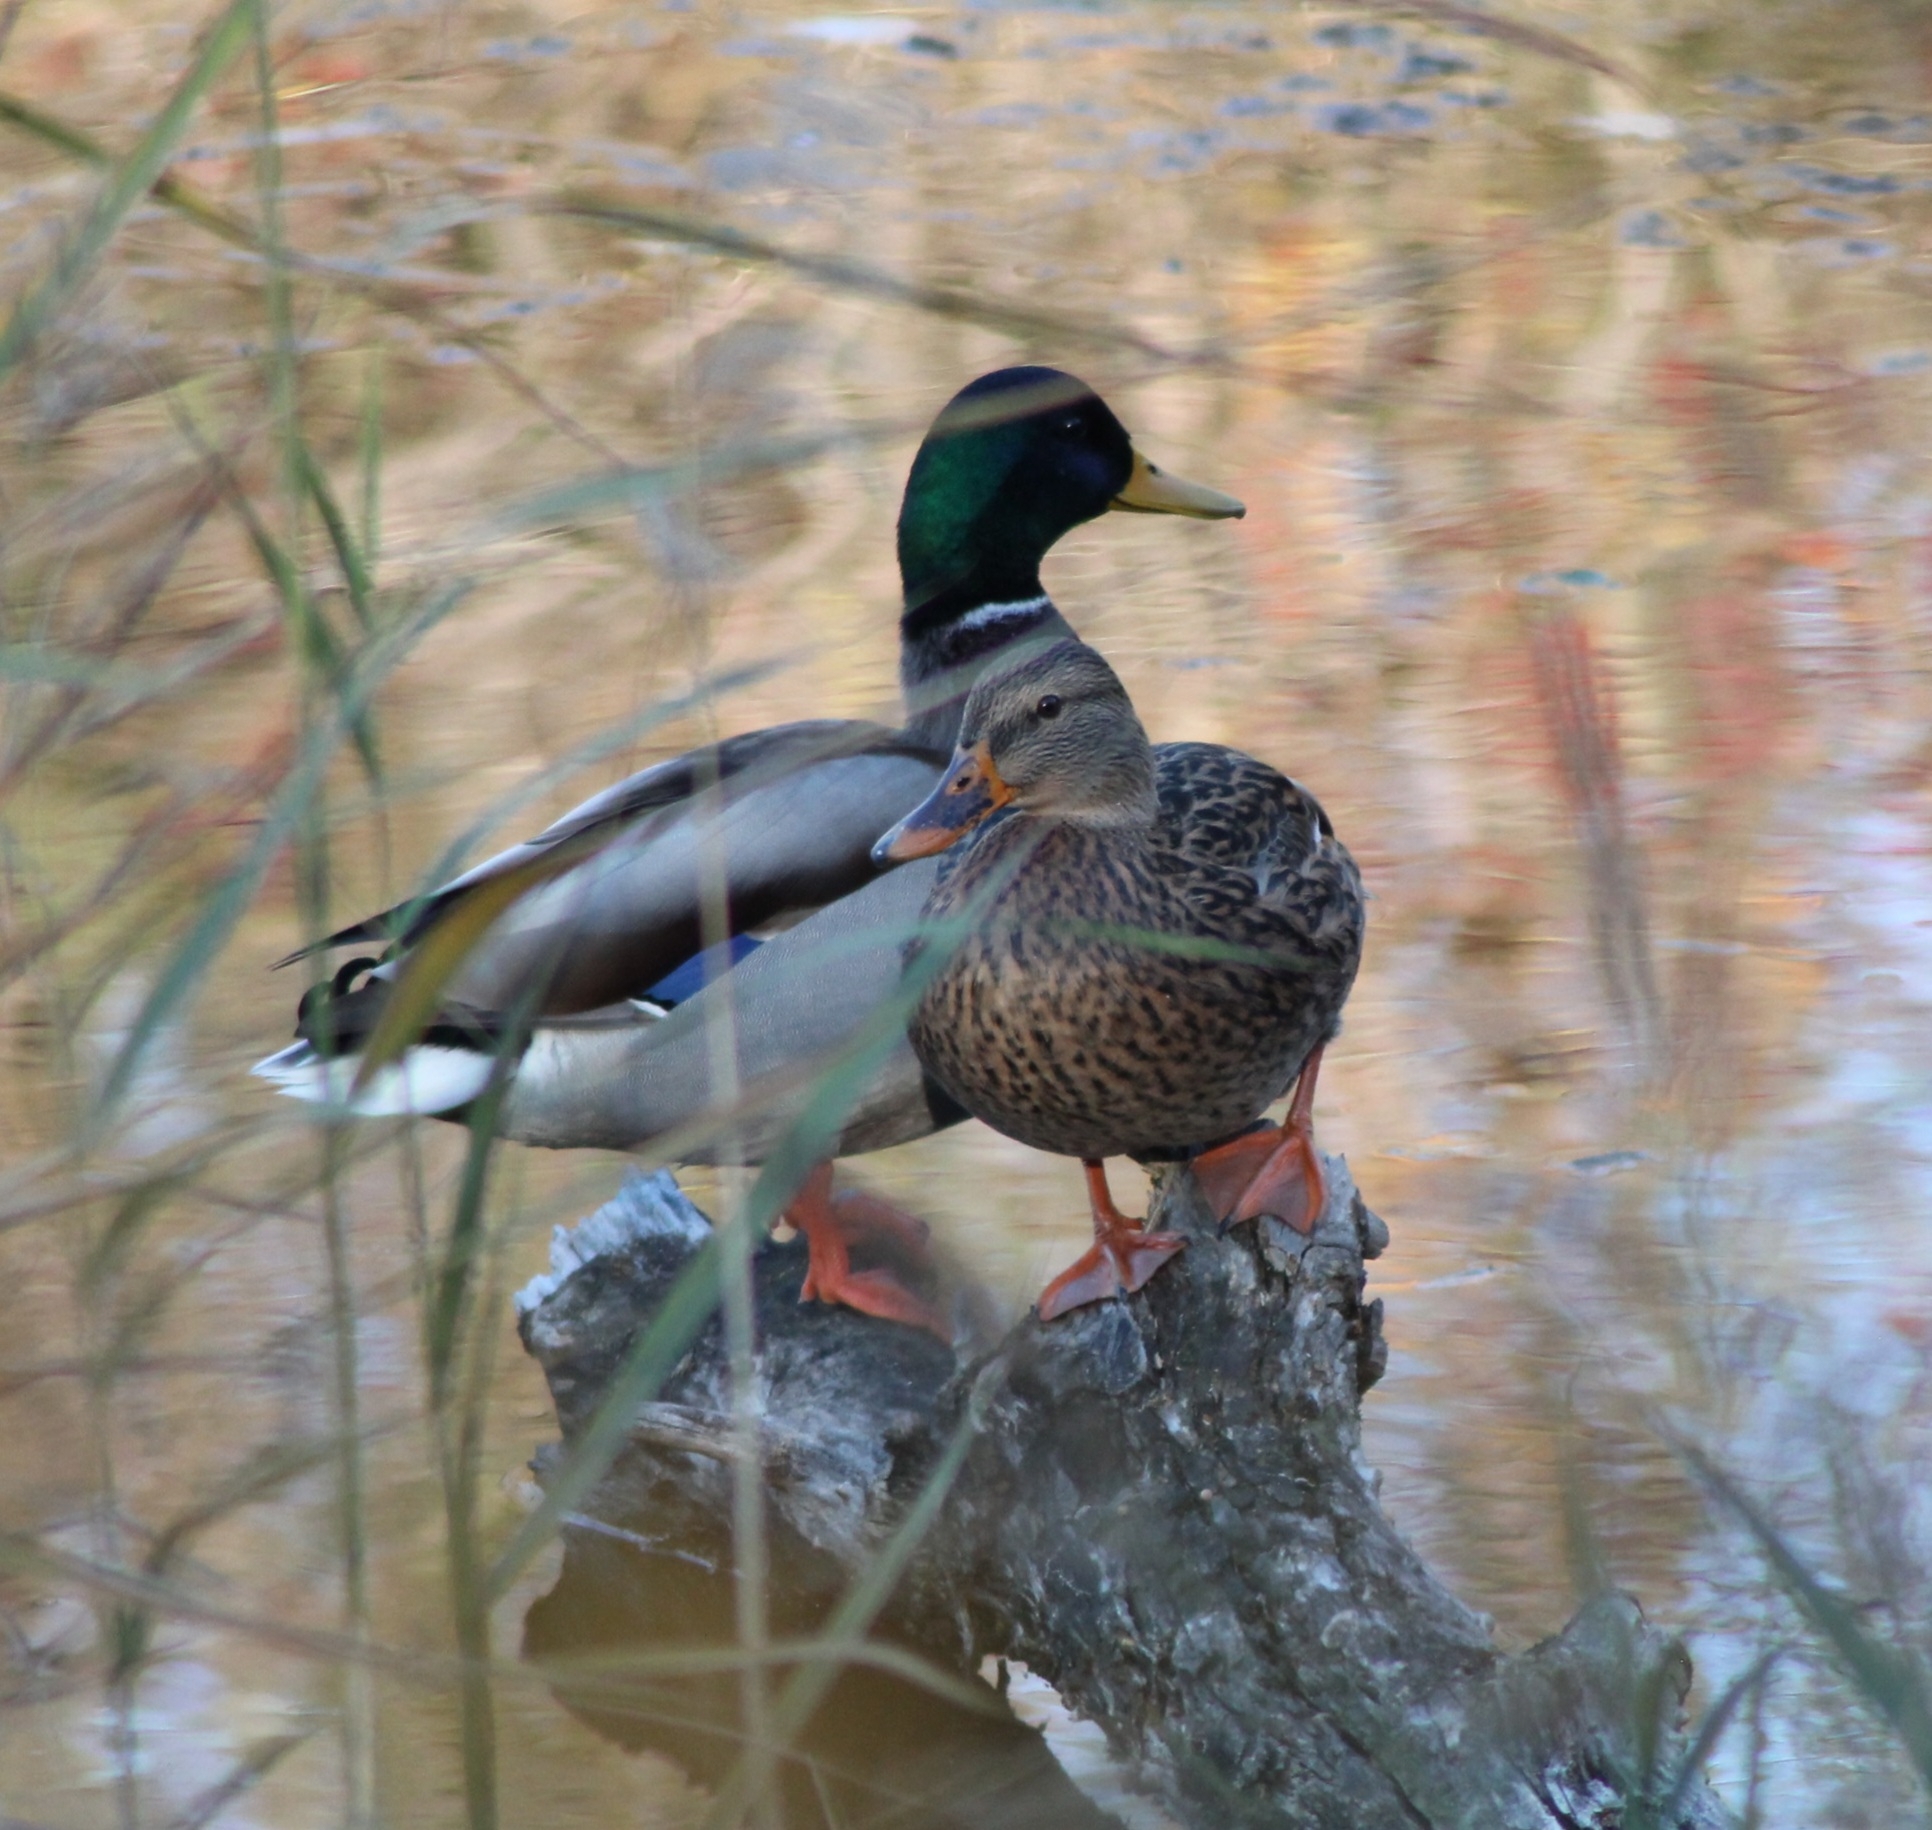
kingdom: Animalia
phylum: Chordata
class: Aves
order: Anseriformes
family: Anatidae
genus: Anas
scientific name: Anas platyrhynchos
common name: Mallard
